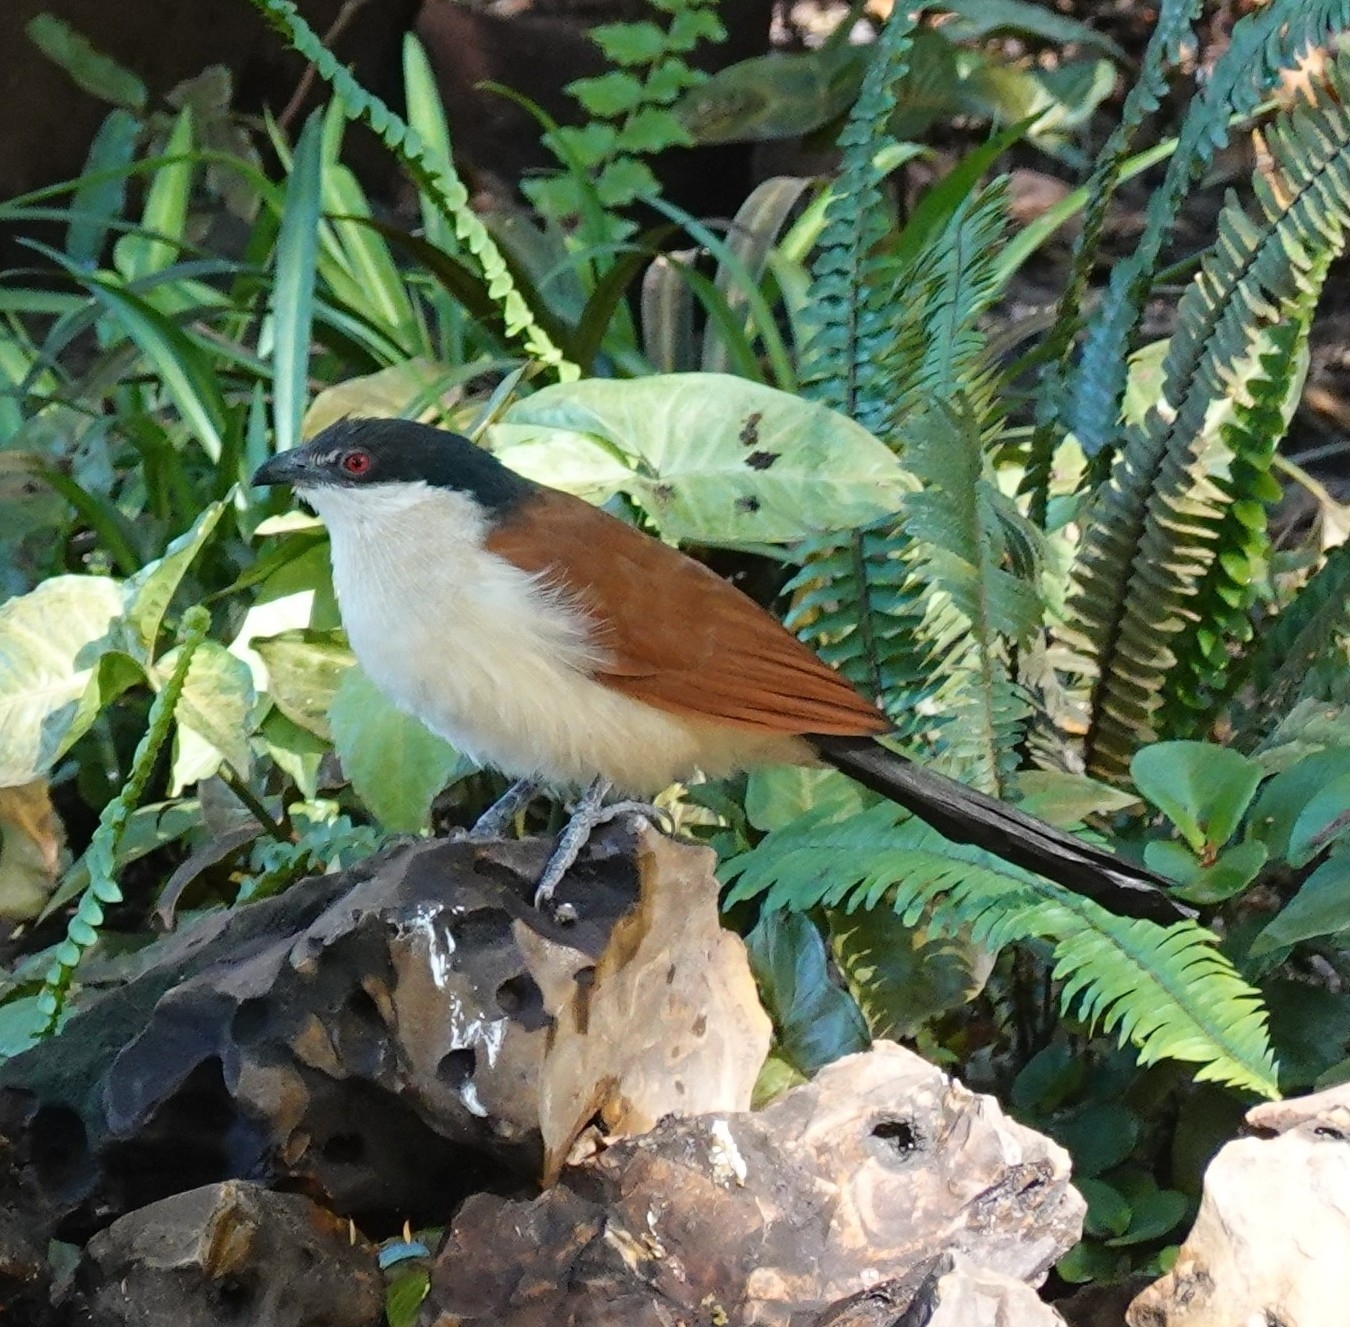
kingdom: Animalia
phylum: Chordata
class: Aves
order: Cuculiformes
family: Cuculidae
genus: Centropus
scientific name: Centropus senegalensis
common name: Senegal coucal
